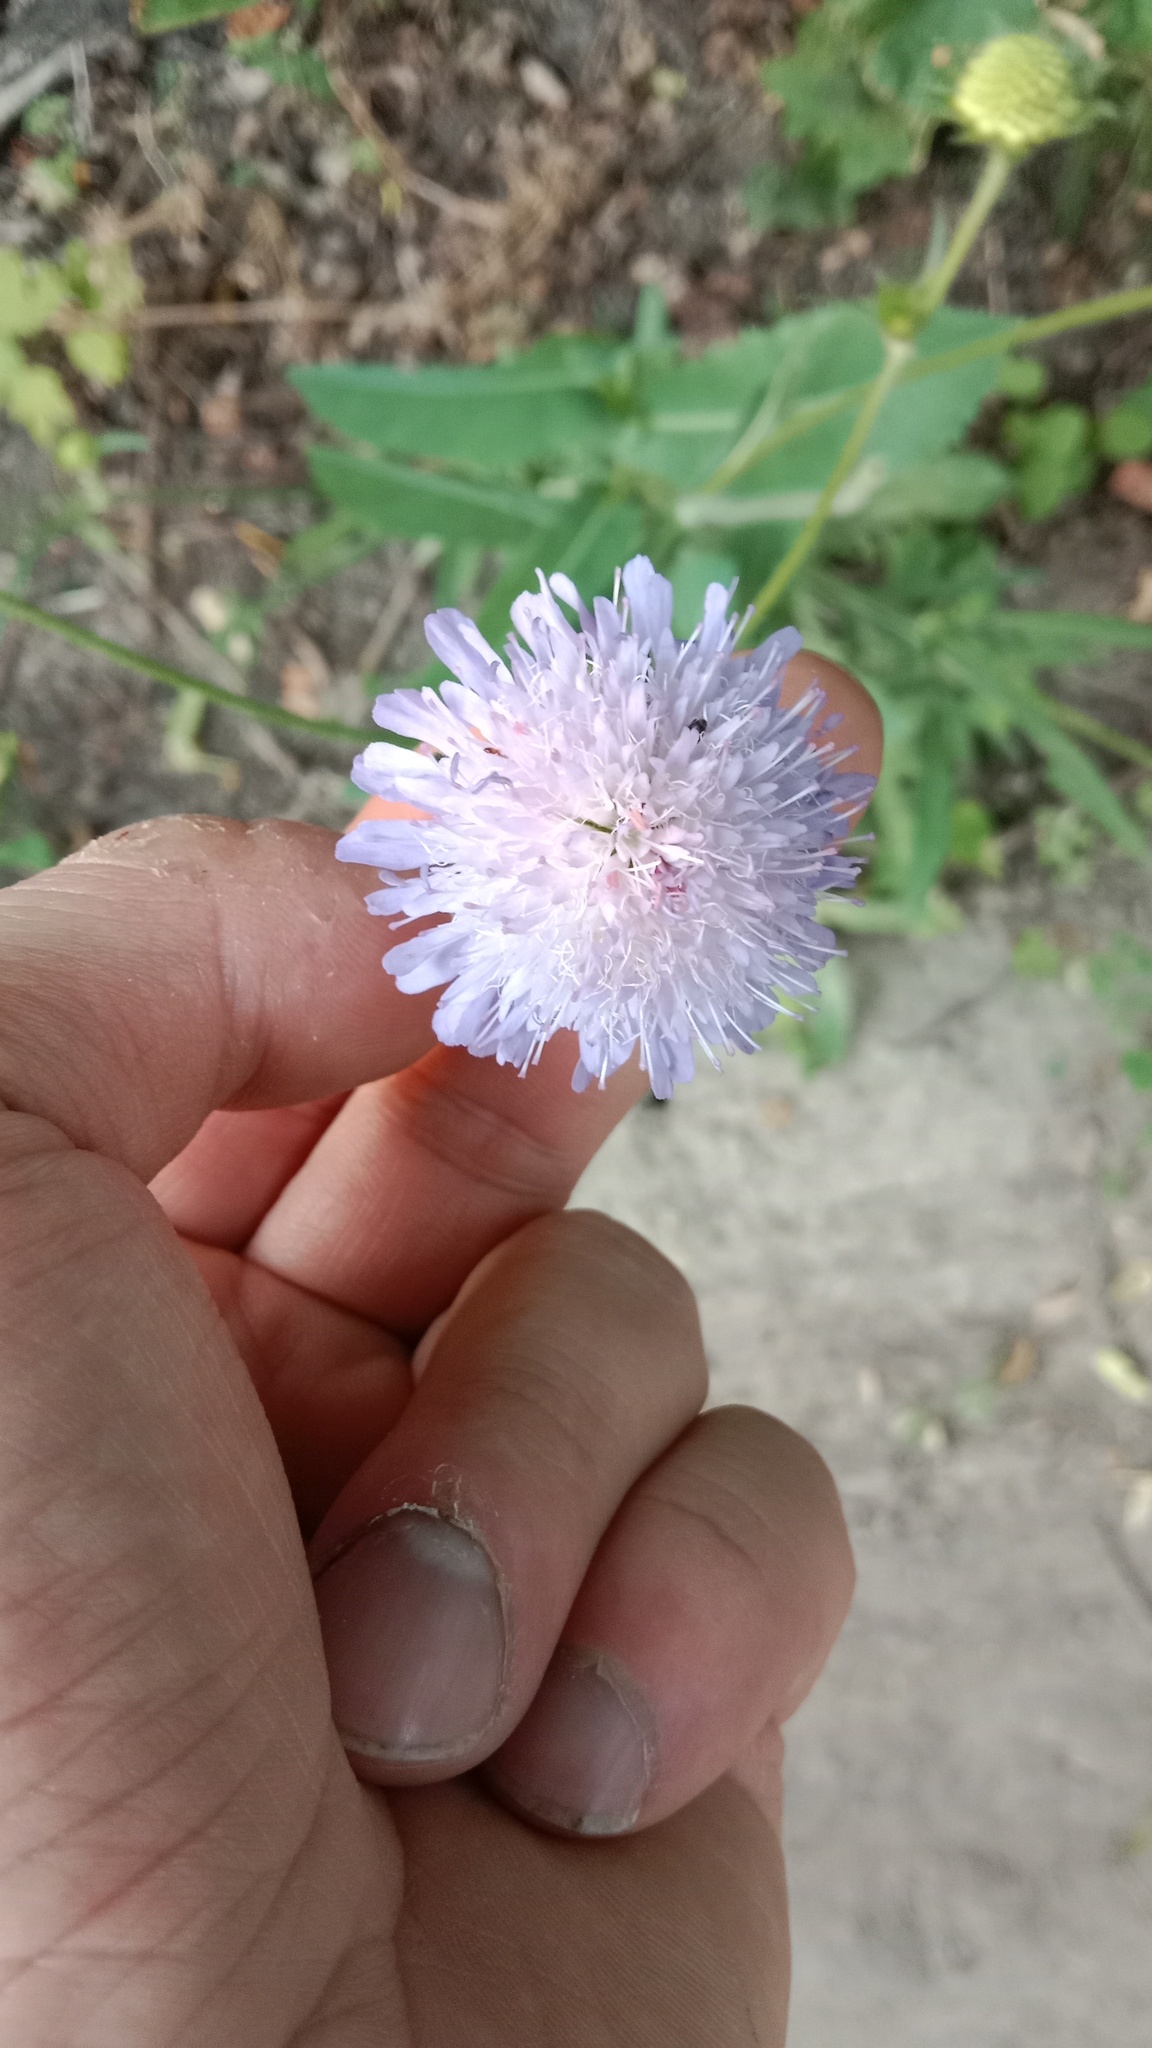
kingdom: Plantae
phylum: Tracheophyta
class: Magnoliopsida
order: Dipsacales
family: Caprifoliaceae
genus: Knautia
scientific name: Knautia arvensis
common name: Field scabiosa
